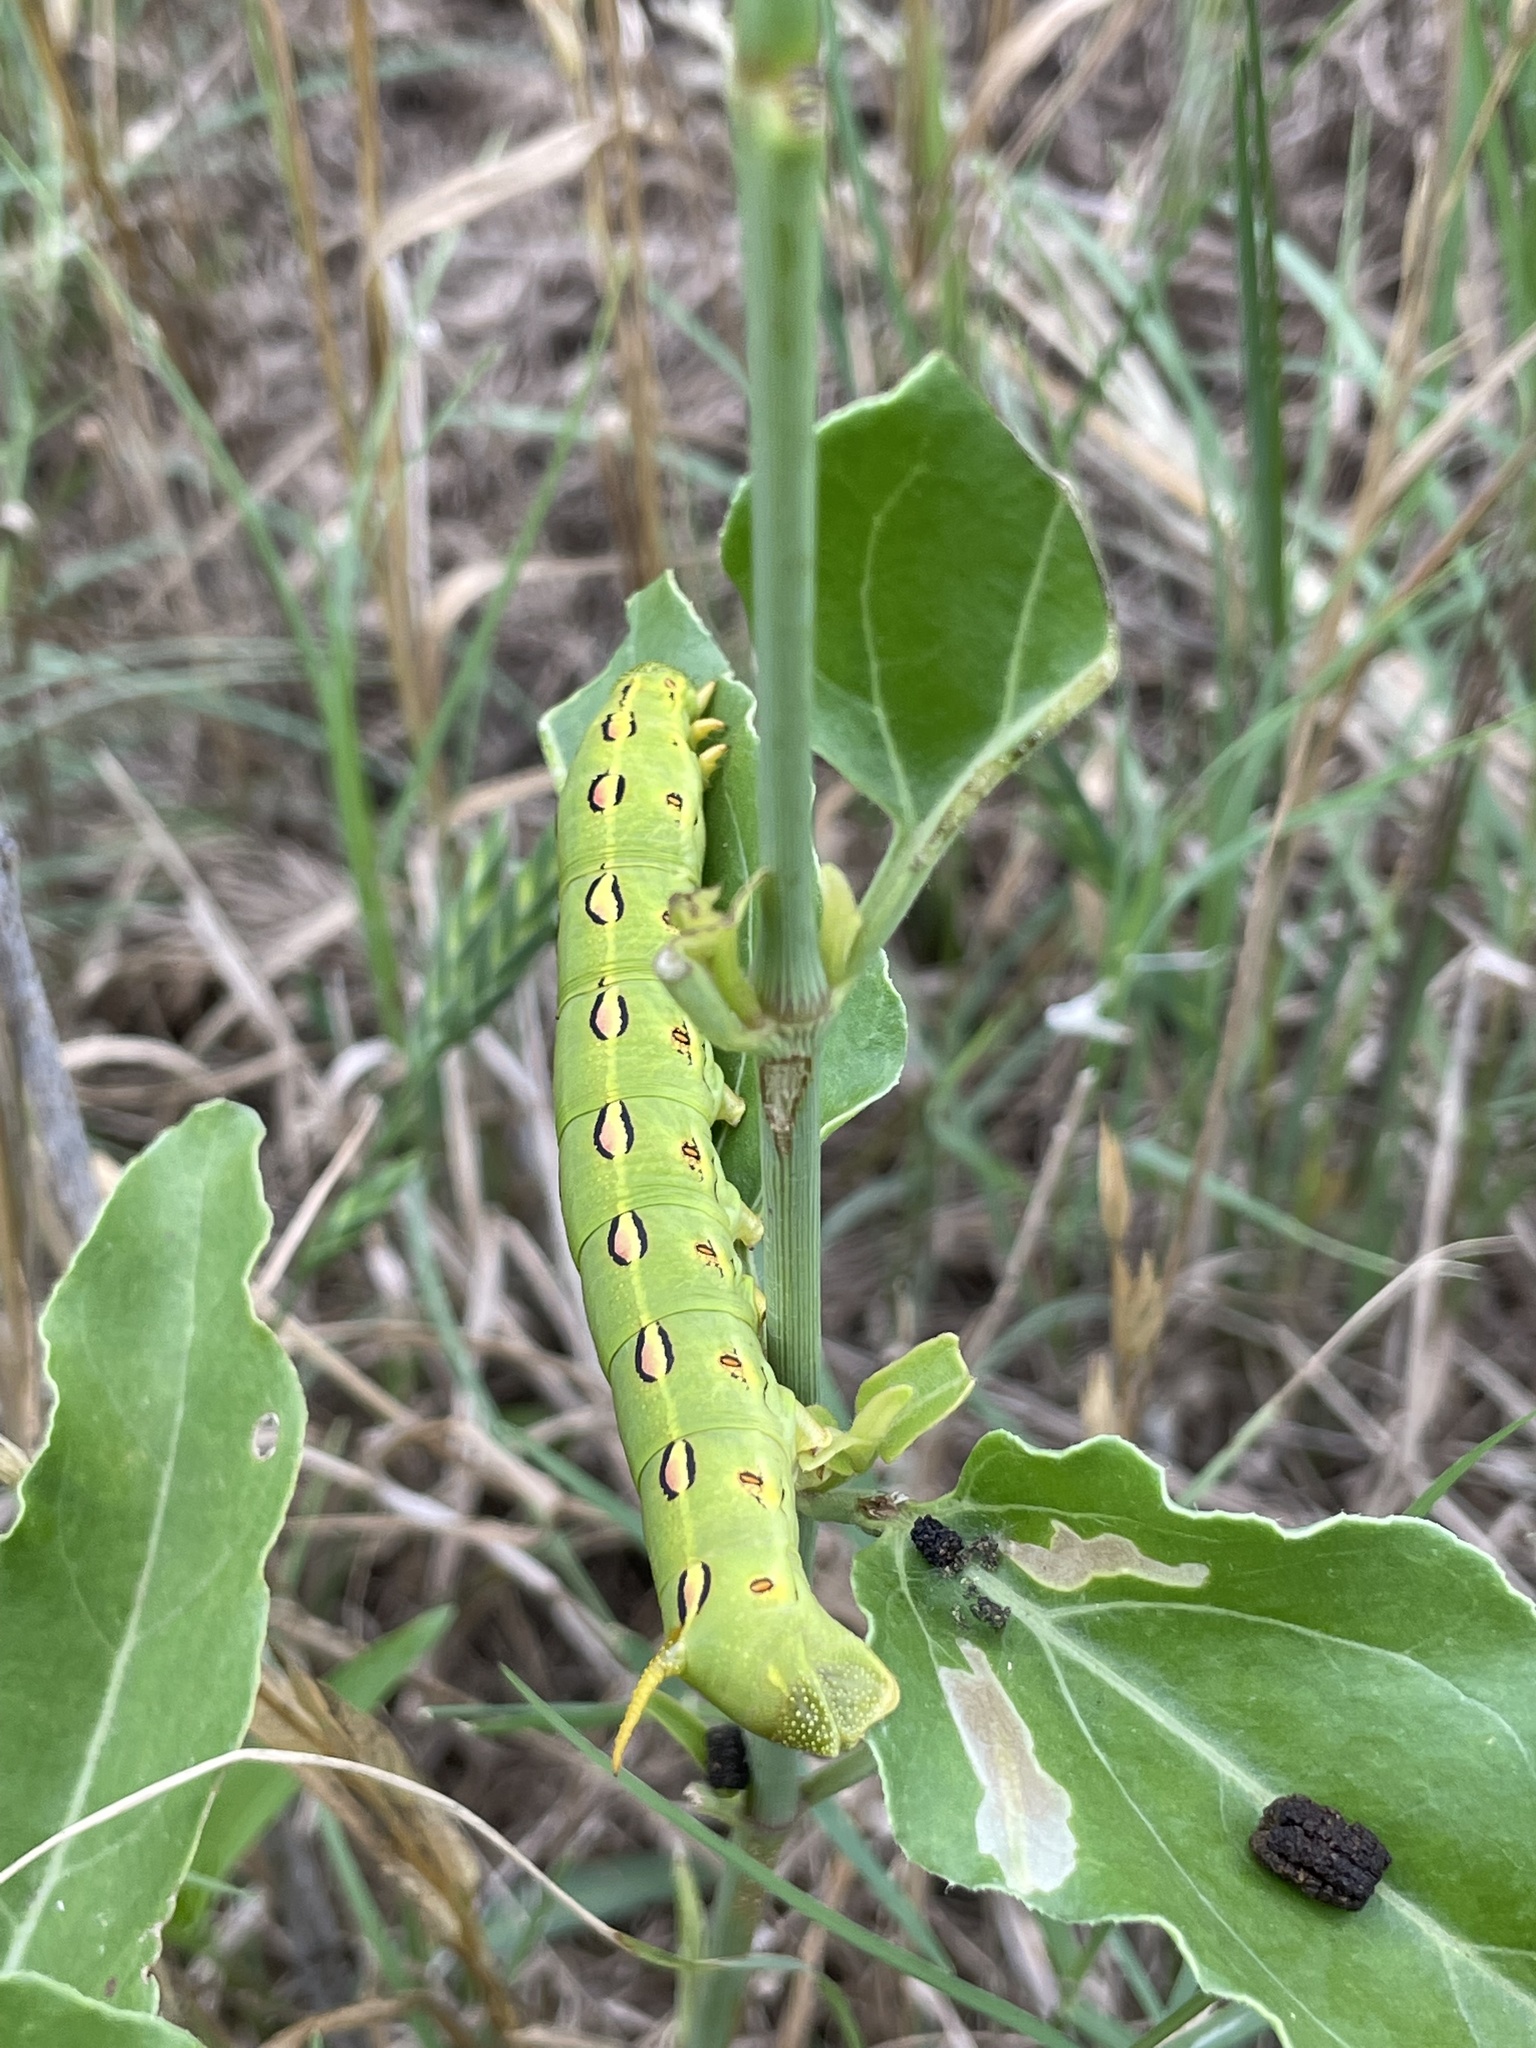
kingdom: Animalia
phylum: Arthropoda
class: Insecta
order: Lepidoptera
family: Sphingidae
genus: Hyles
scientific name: Hyles lineata
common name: White-lined sphinx
